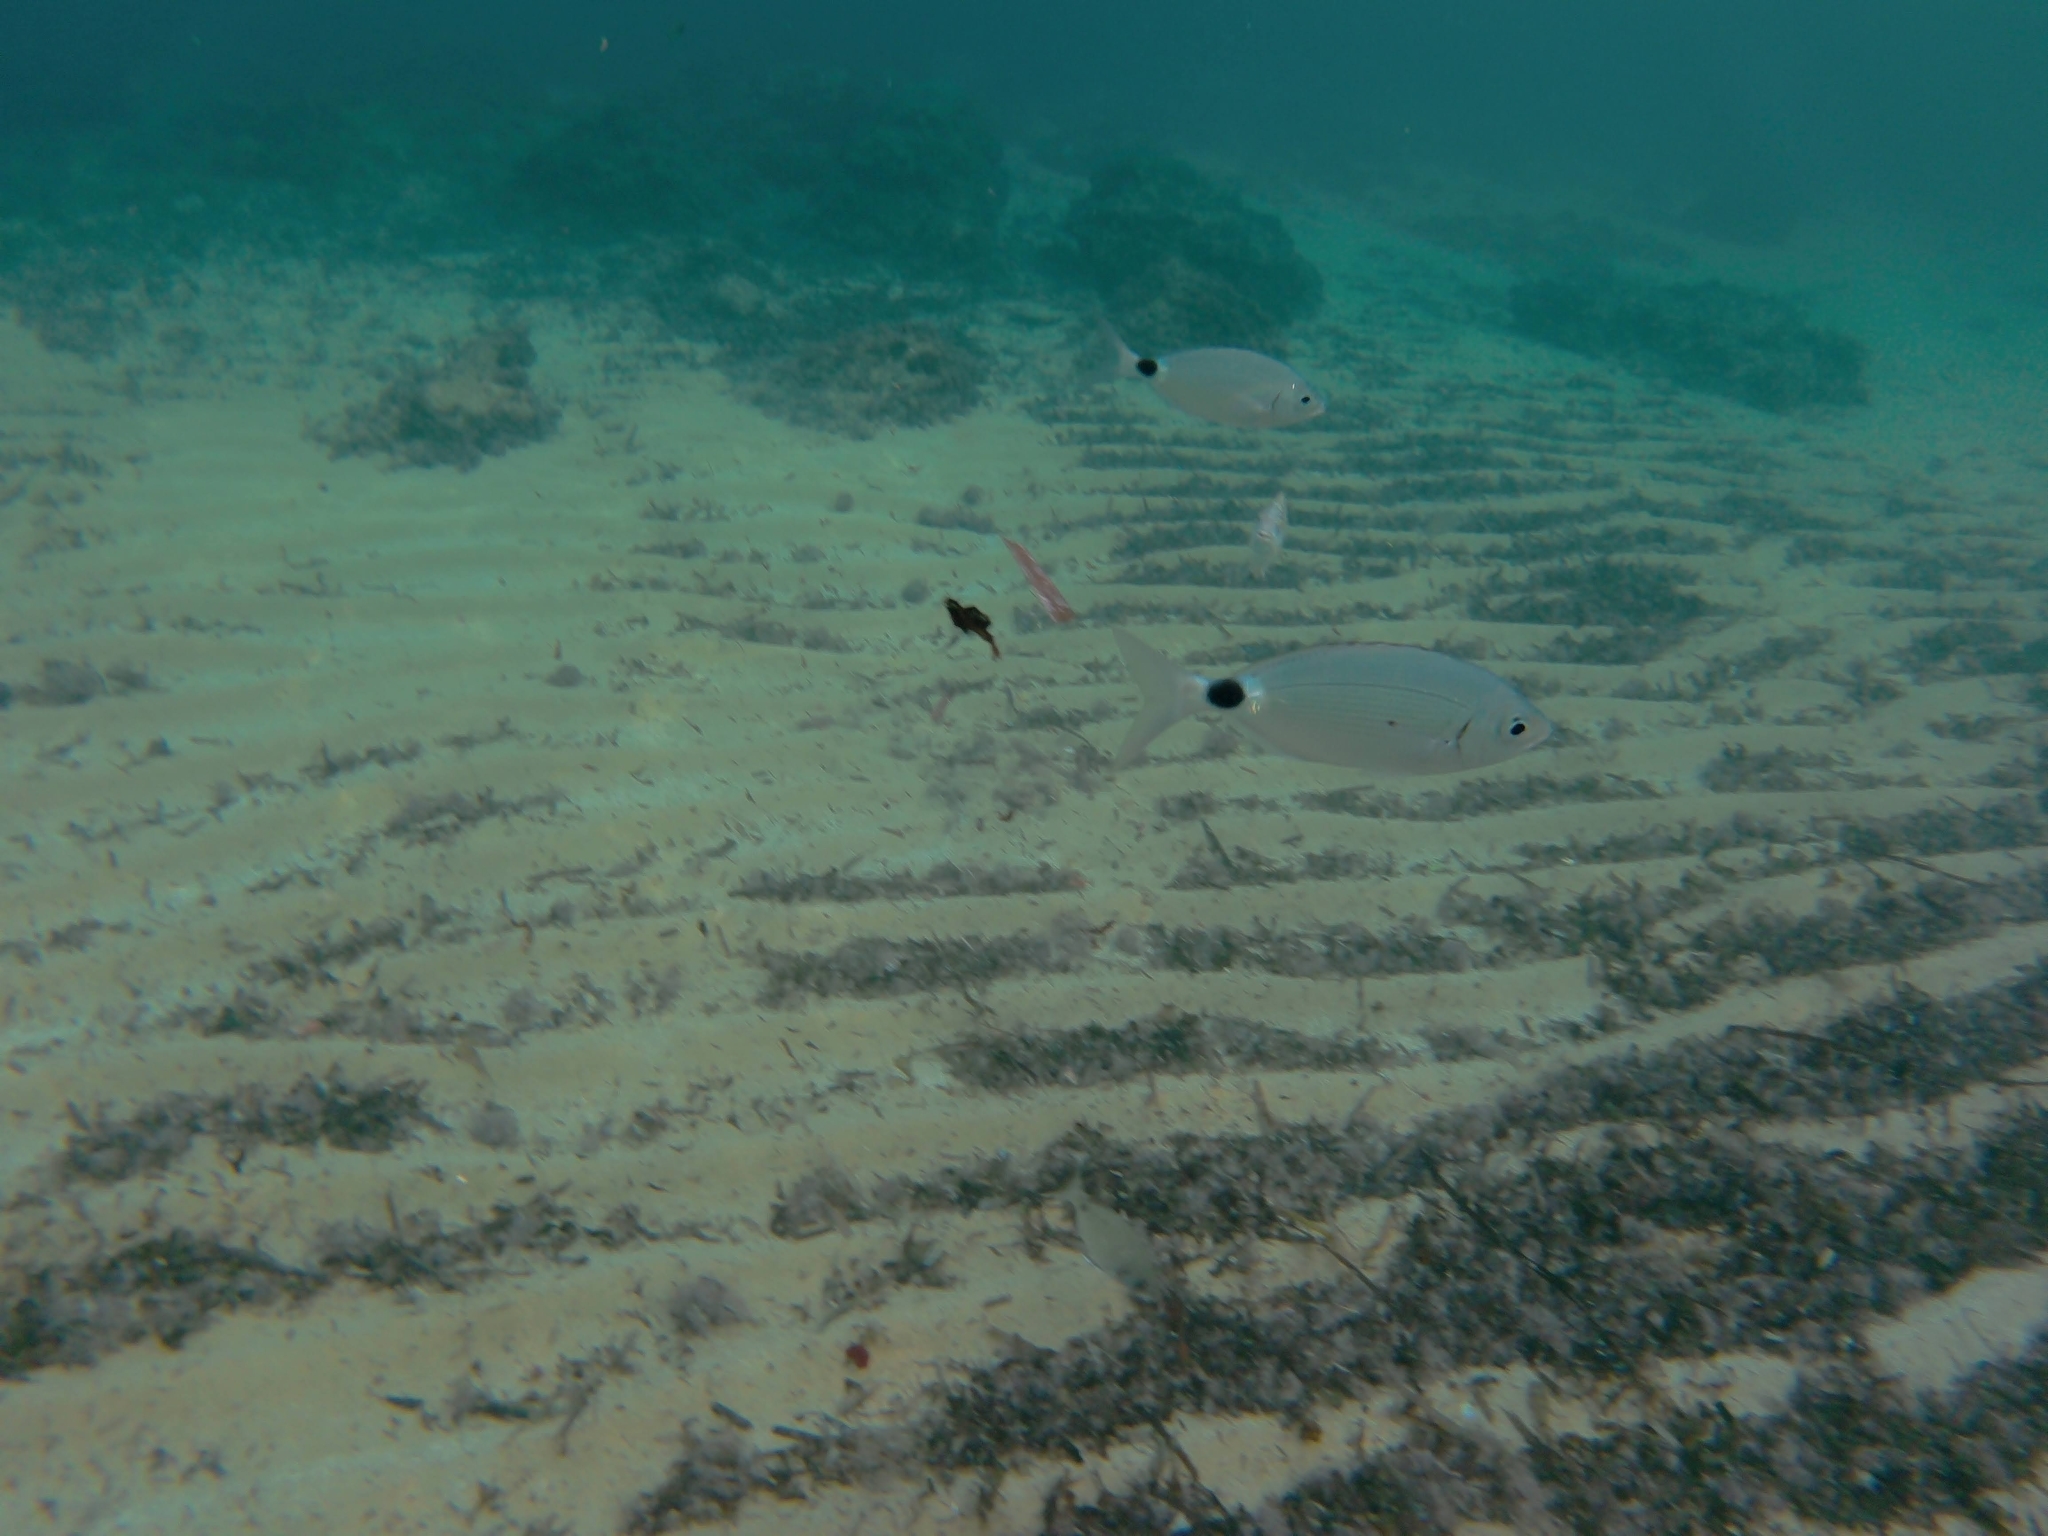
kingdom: Animalia
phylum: Chordata
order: Perciformes
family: Sparidae
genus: Oblada
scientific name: Oblada melanura
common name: Saddled seabream
